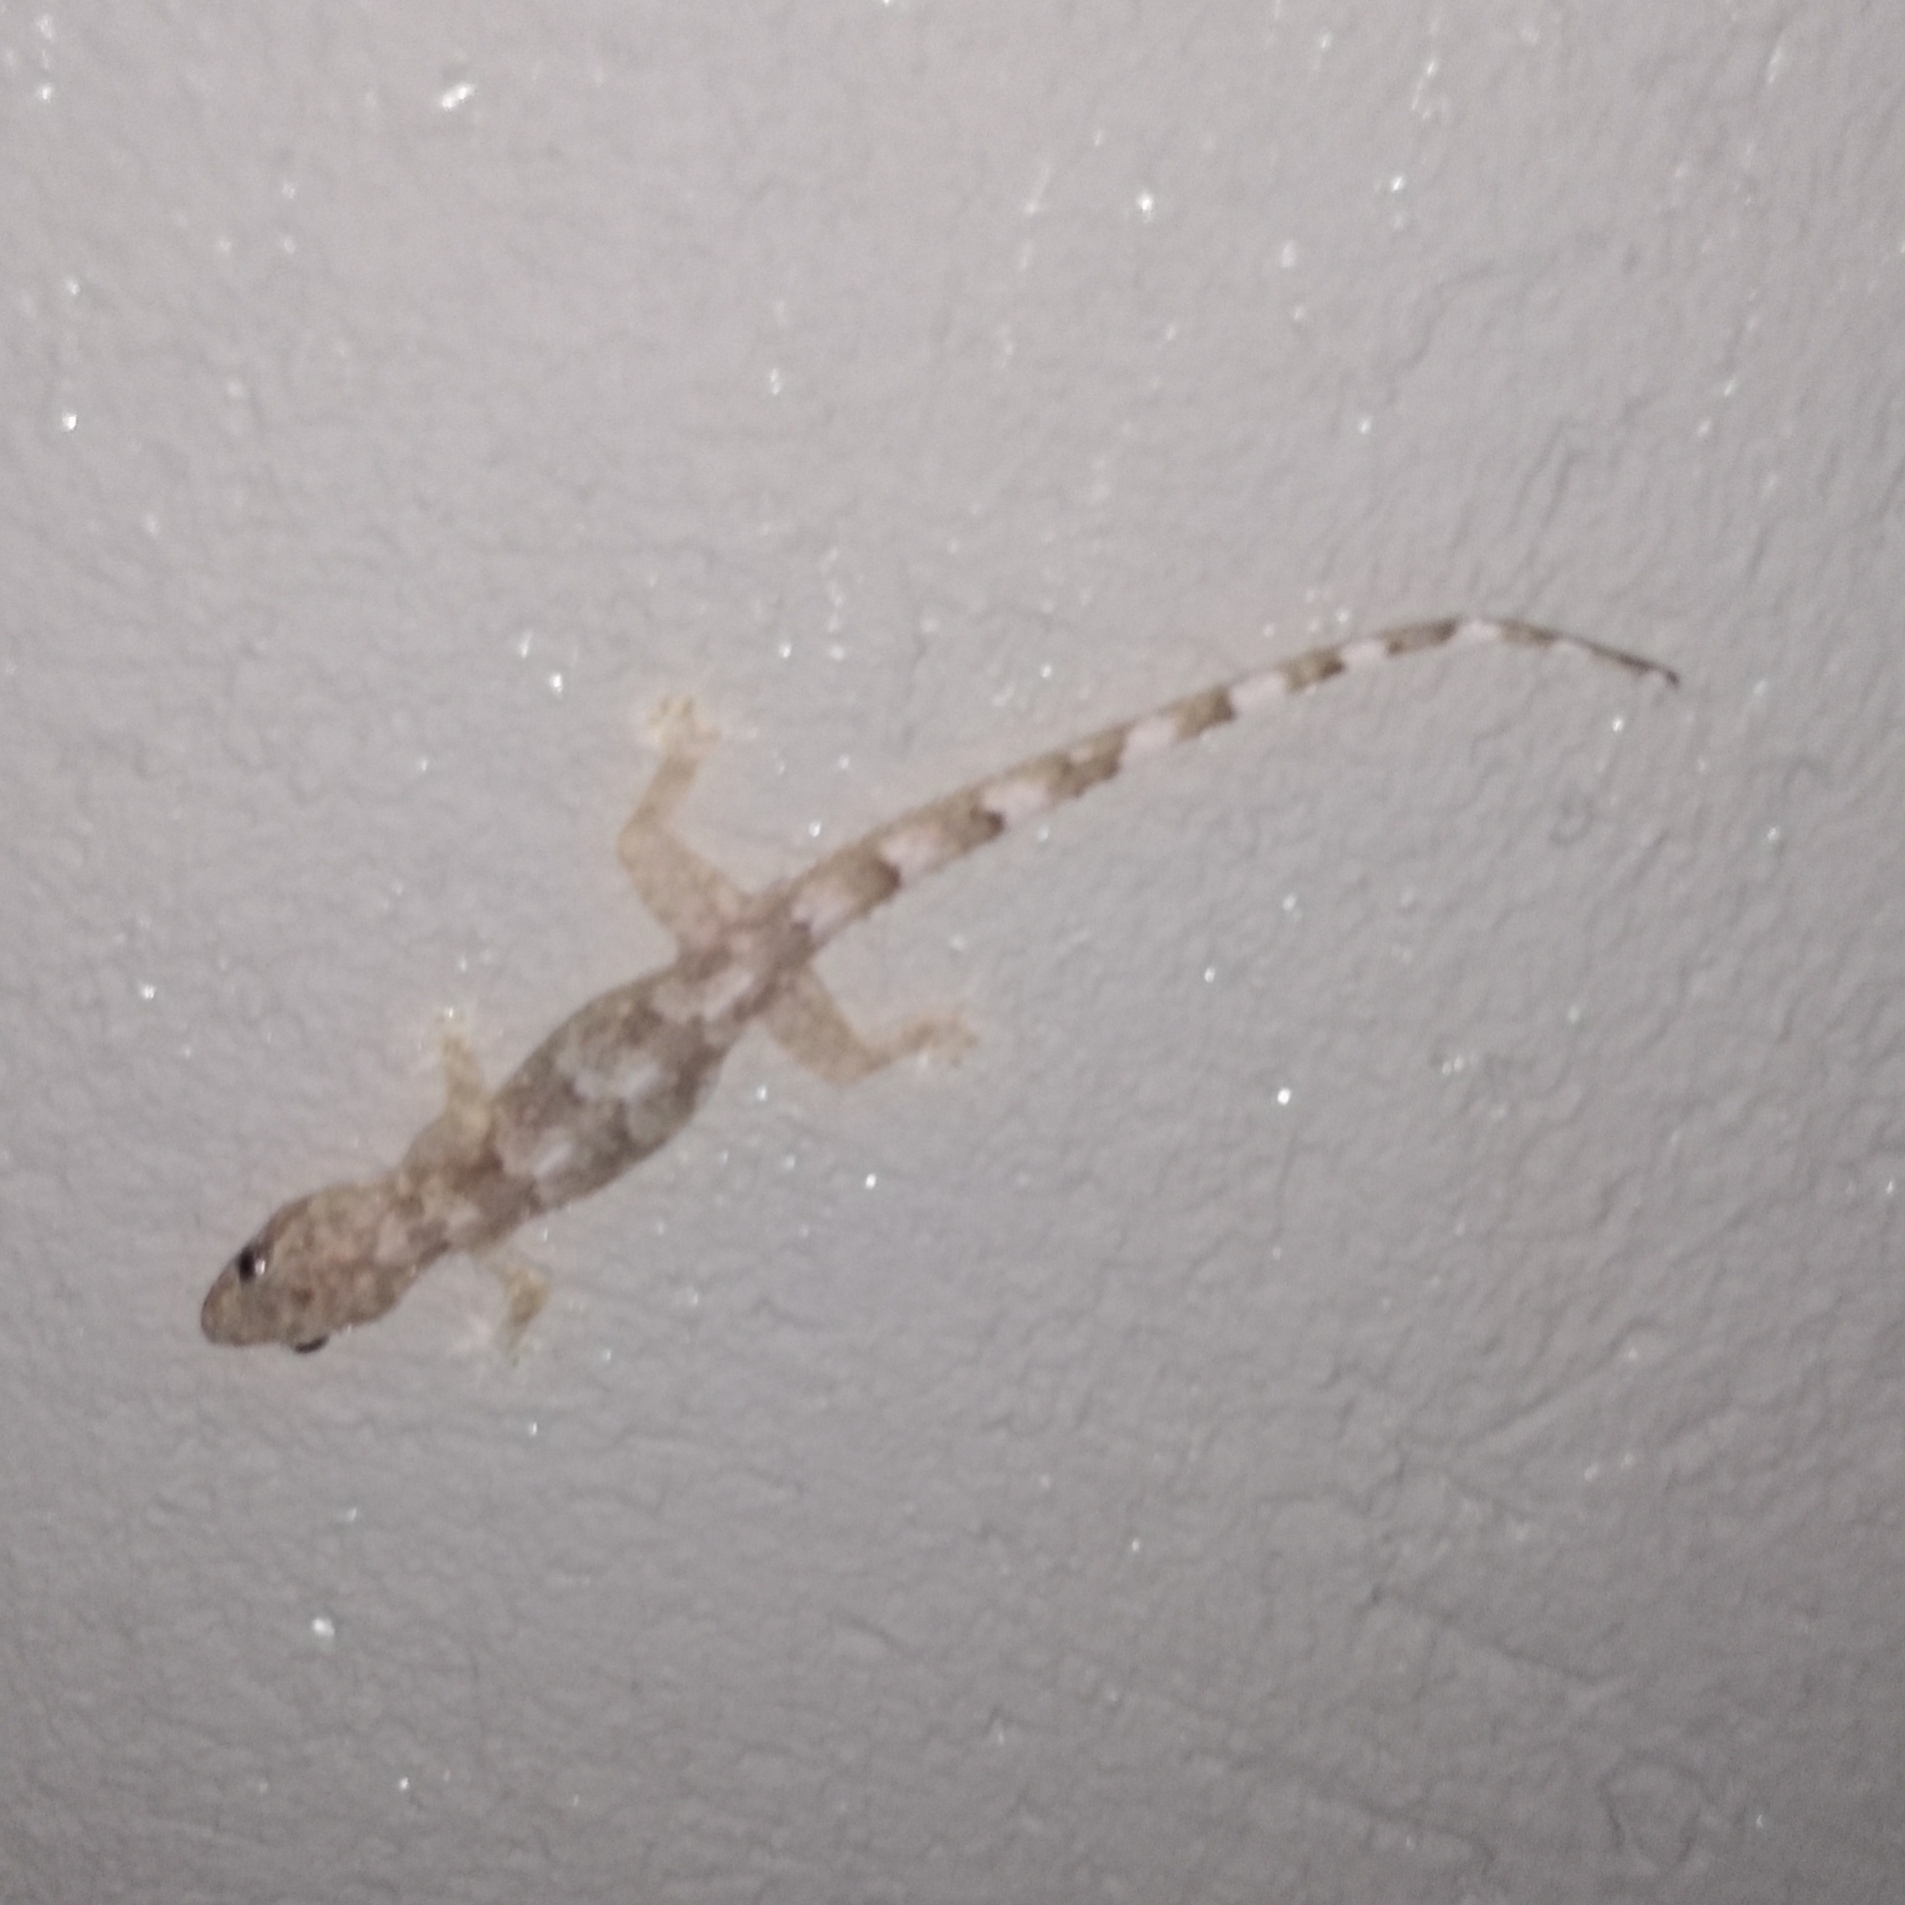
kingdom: Animalia
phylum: Chordata
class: Squamata
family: Gekkonidae
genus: Hemidactylus
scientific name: Hemidactylus mabouia
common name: House gecko
